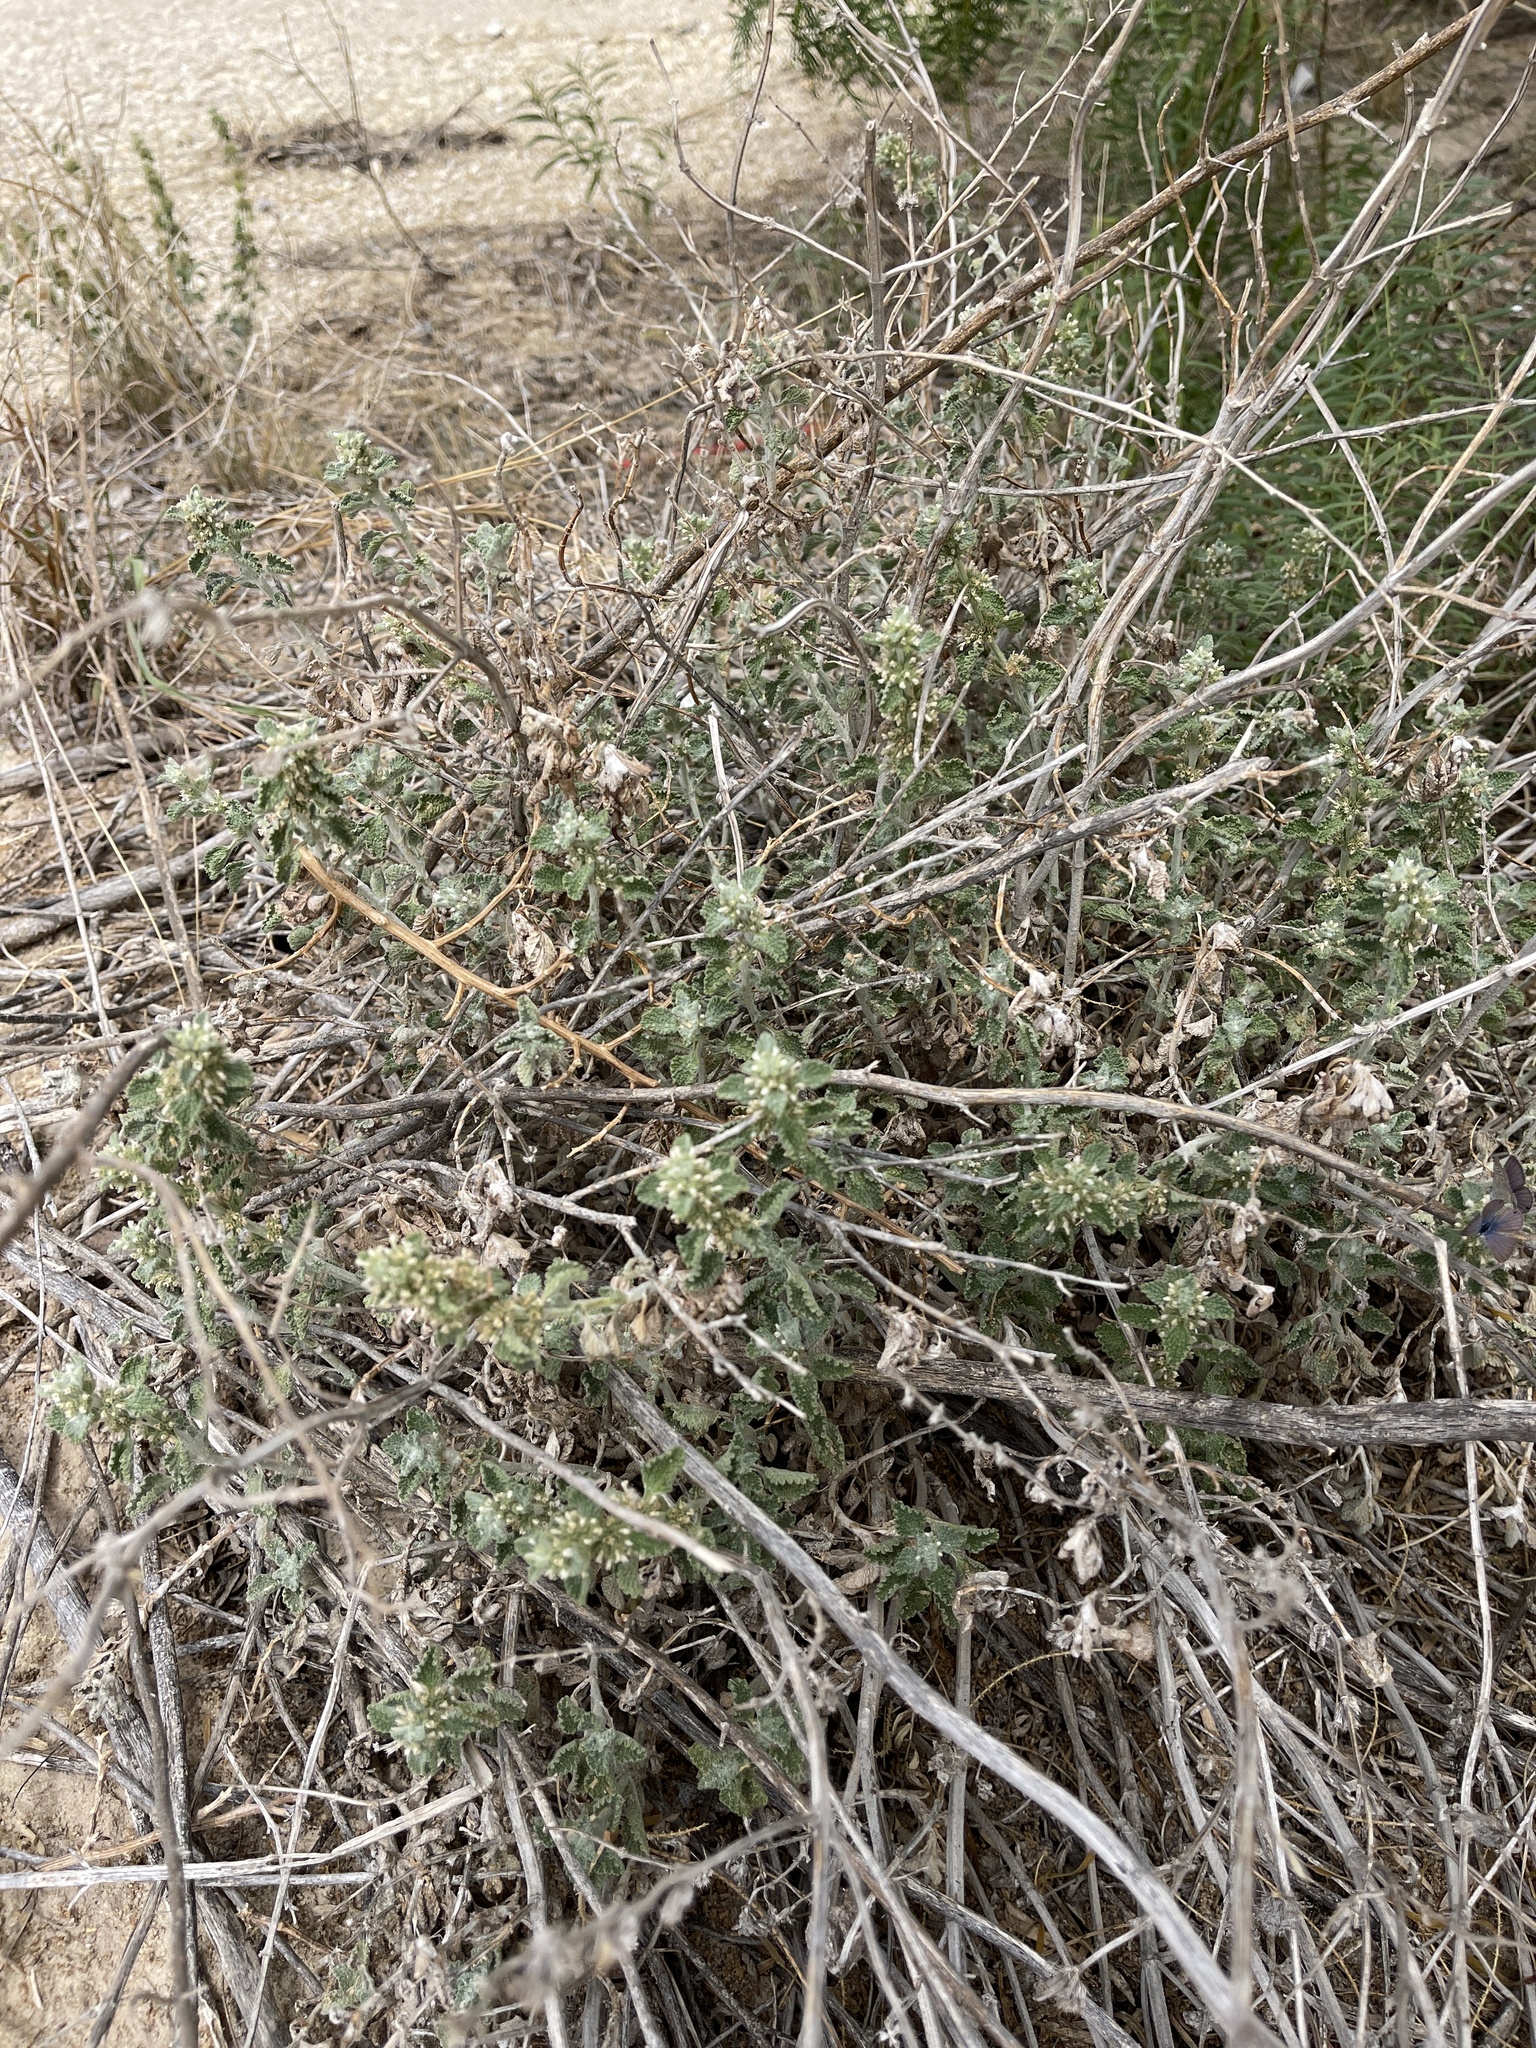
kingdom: Plantae
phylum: Tracheophyta
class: Magnoliopsida
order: Lamiales
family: Lamiaceae
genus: Marrubium
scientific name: Marrubium vulgare
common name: Horehound
